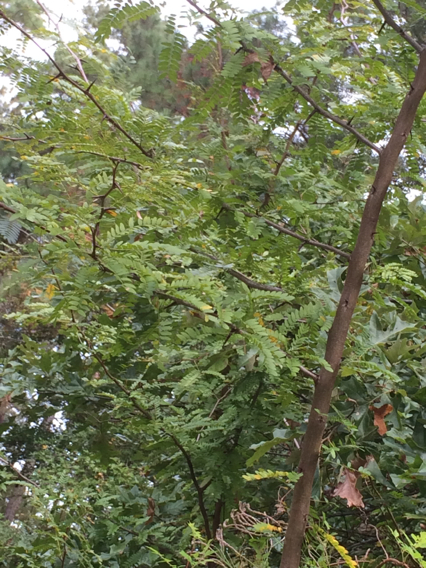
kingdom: Plantae
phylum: Tracheophyta
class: Magnoliopsida
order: Fabales
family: Fabaceae
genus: Gleditsia
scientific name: Gleditsia triacanthos
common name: Common honeylocust
